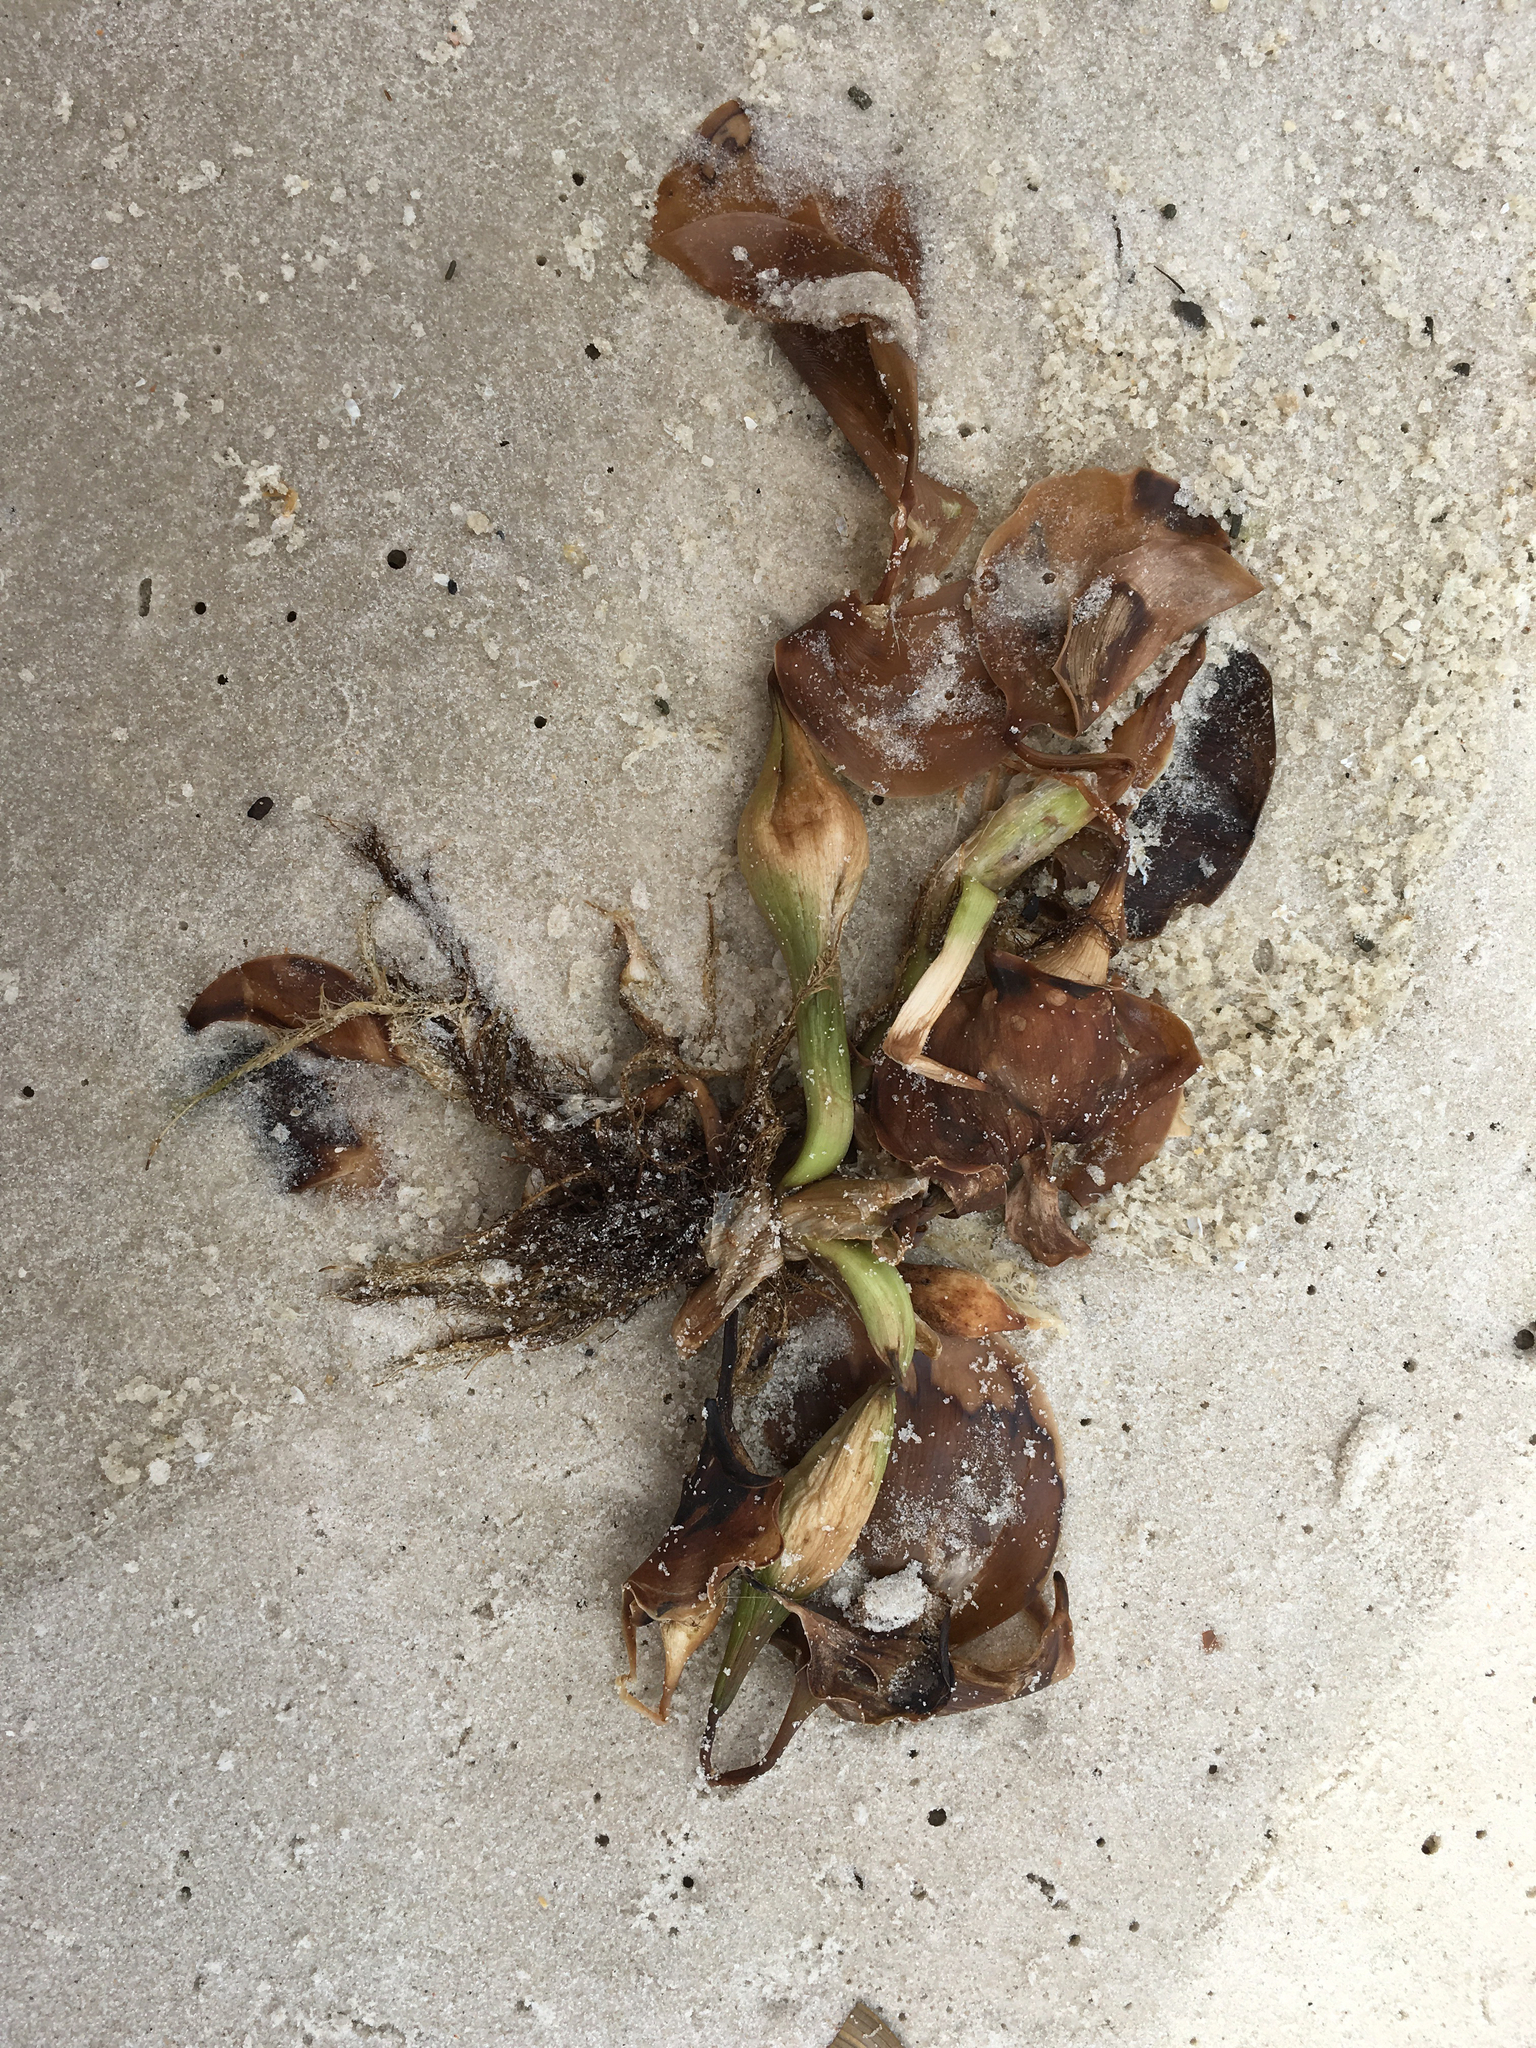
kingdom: Plantae
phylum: Tracheophyta
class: Liliopsida
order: Commelinales
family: Pontederiaceae
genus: Pontederia
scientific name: Pontederia crassipes
